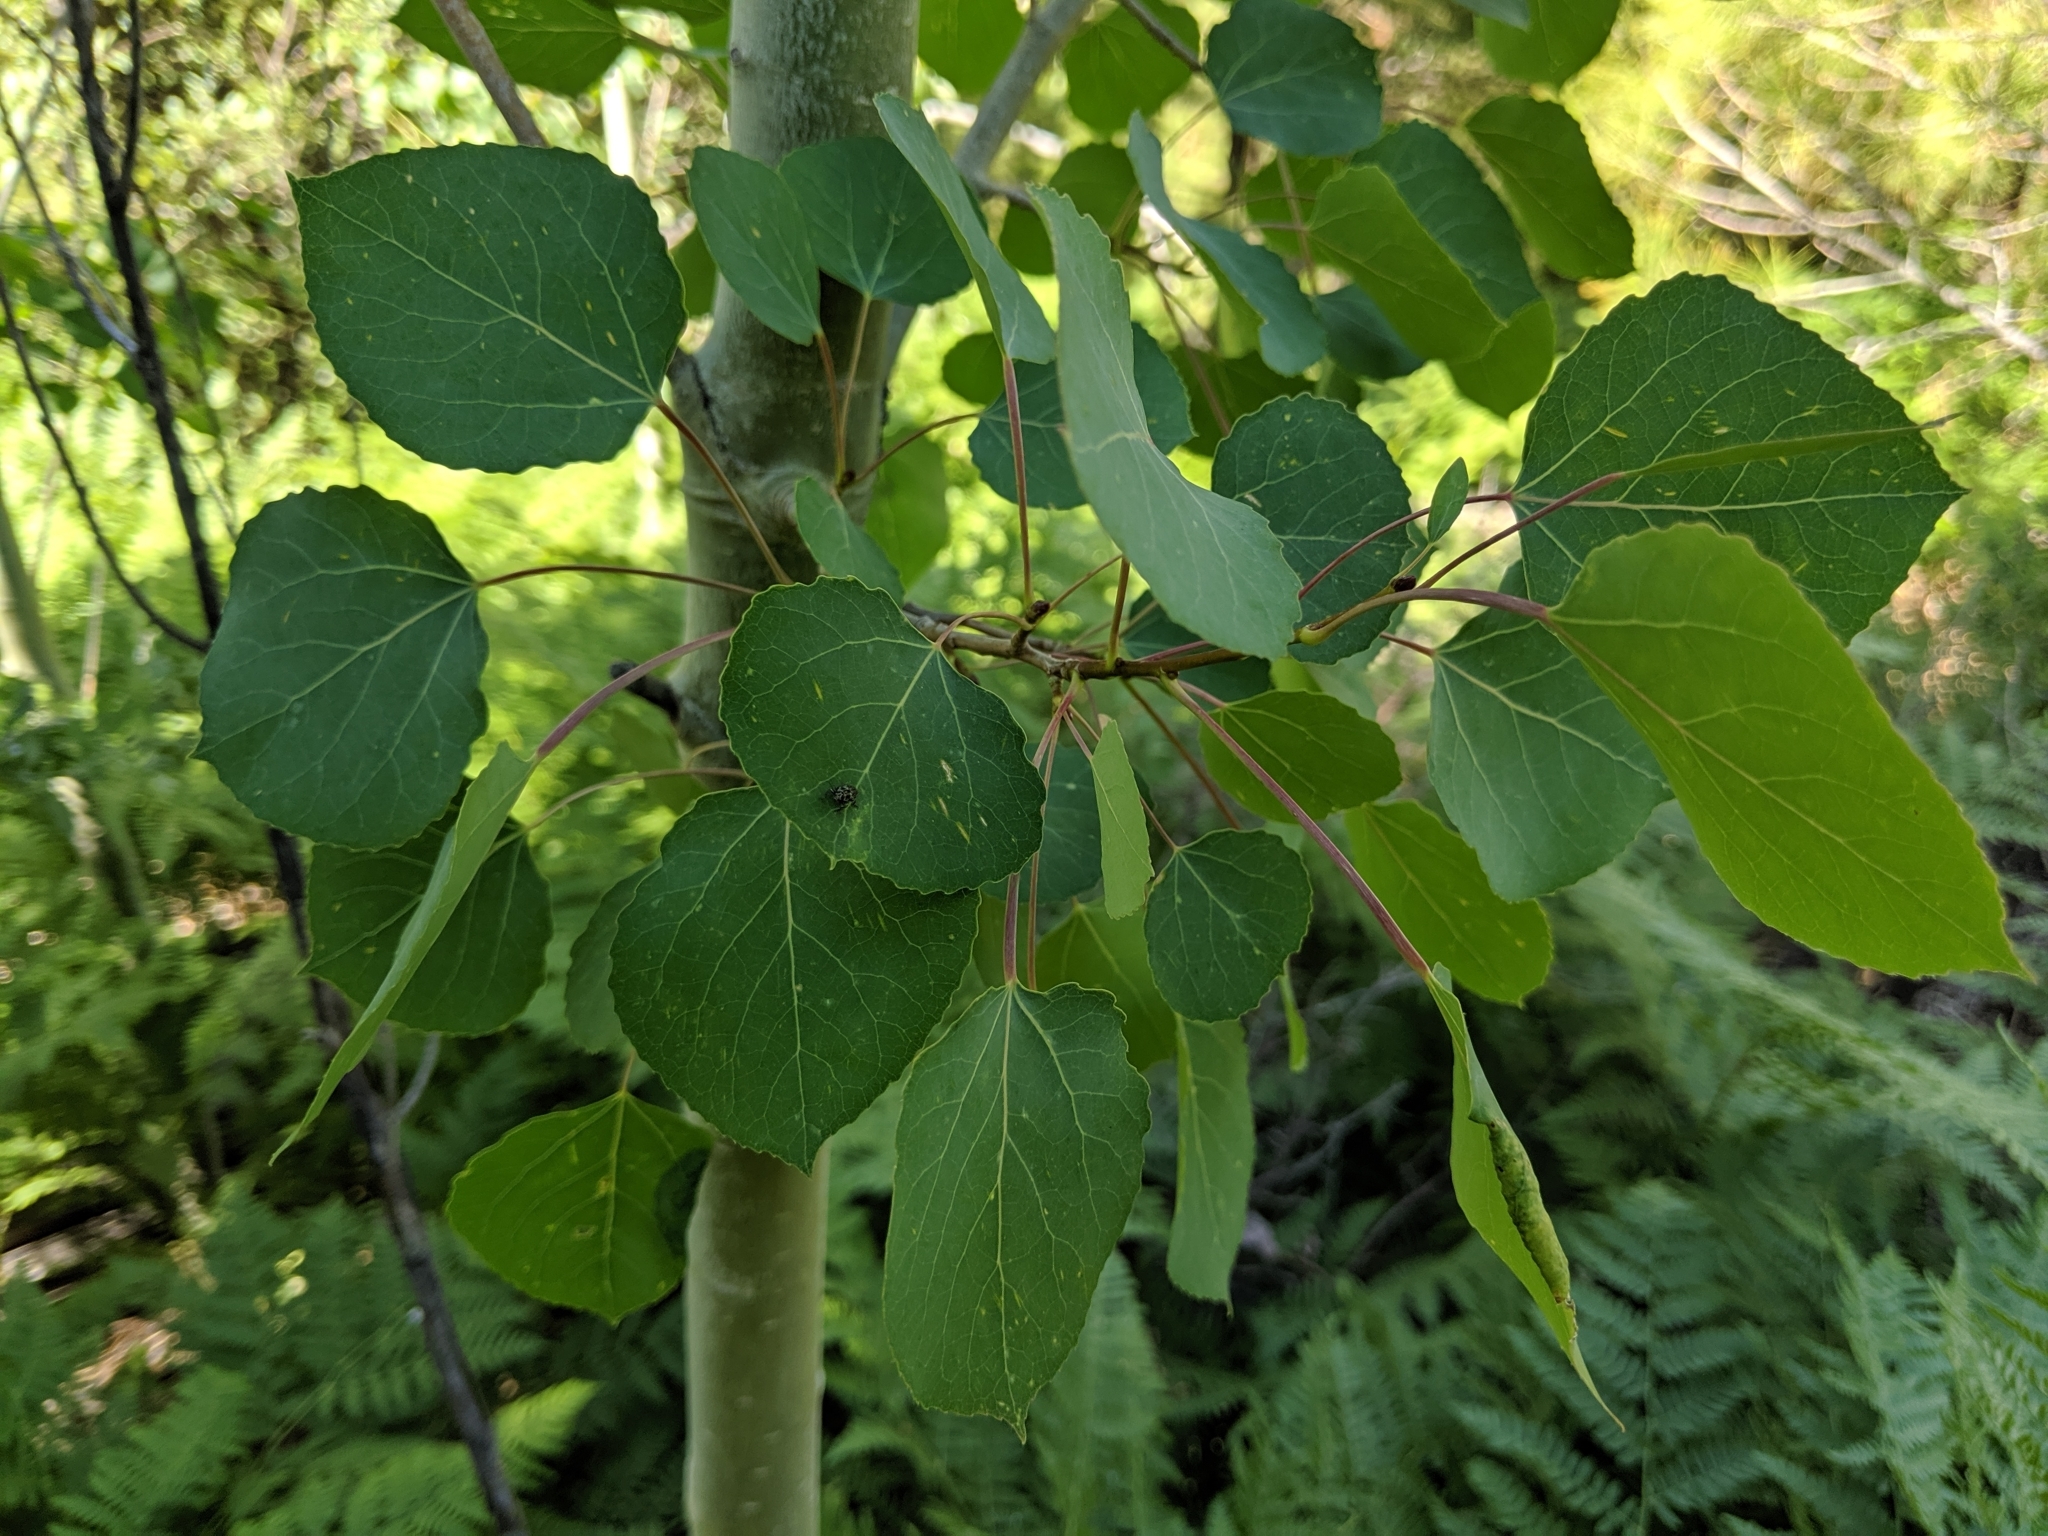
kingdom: Plantae
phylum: Tracheophyta
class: Magnoliopsida
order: Malpighiales
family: Salicaceae
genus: Populus
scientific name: Populus tremuloides
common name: Quaking aspen
